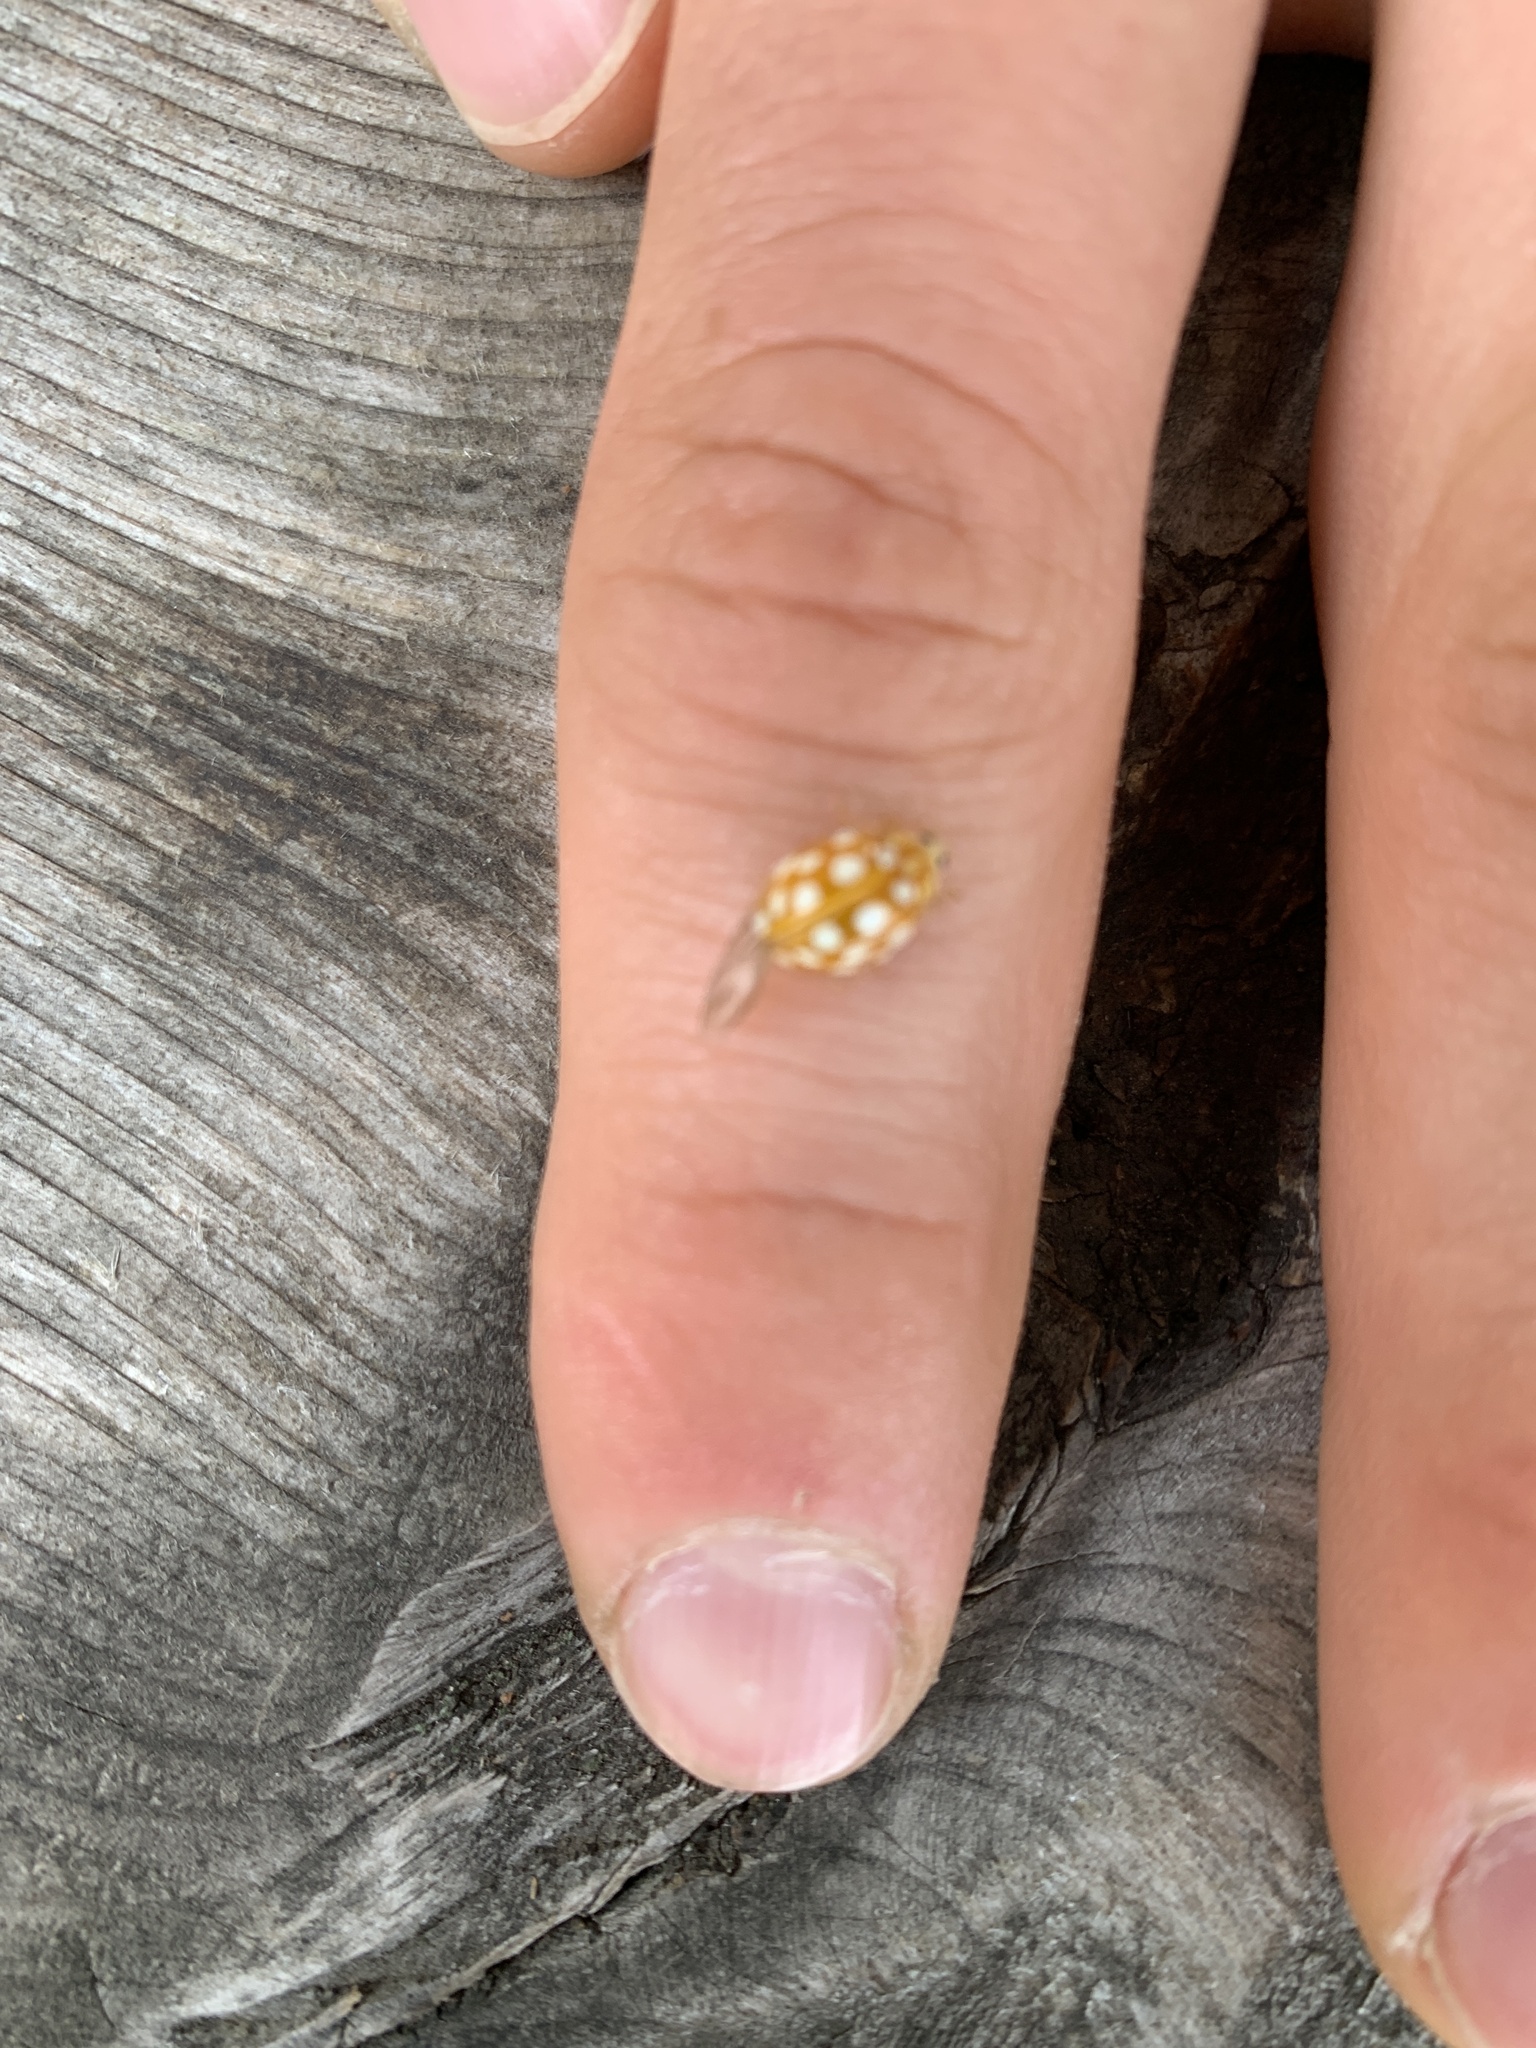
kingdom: Animalia
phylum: Arthropoda
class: Insecta
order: Coleoptera
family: Coccinellidae
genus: Halyzia
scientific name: Halyzia sedecimguttata
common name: Orange ladybird
